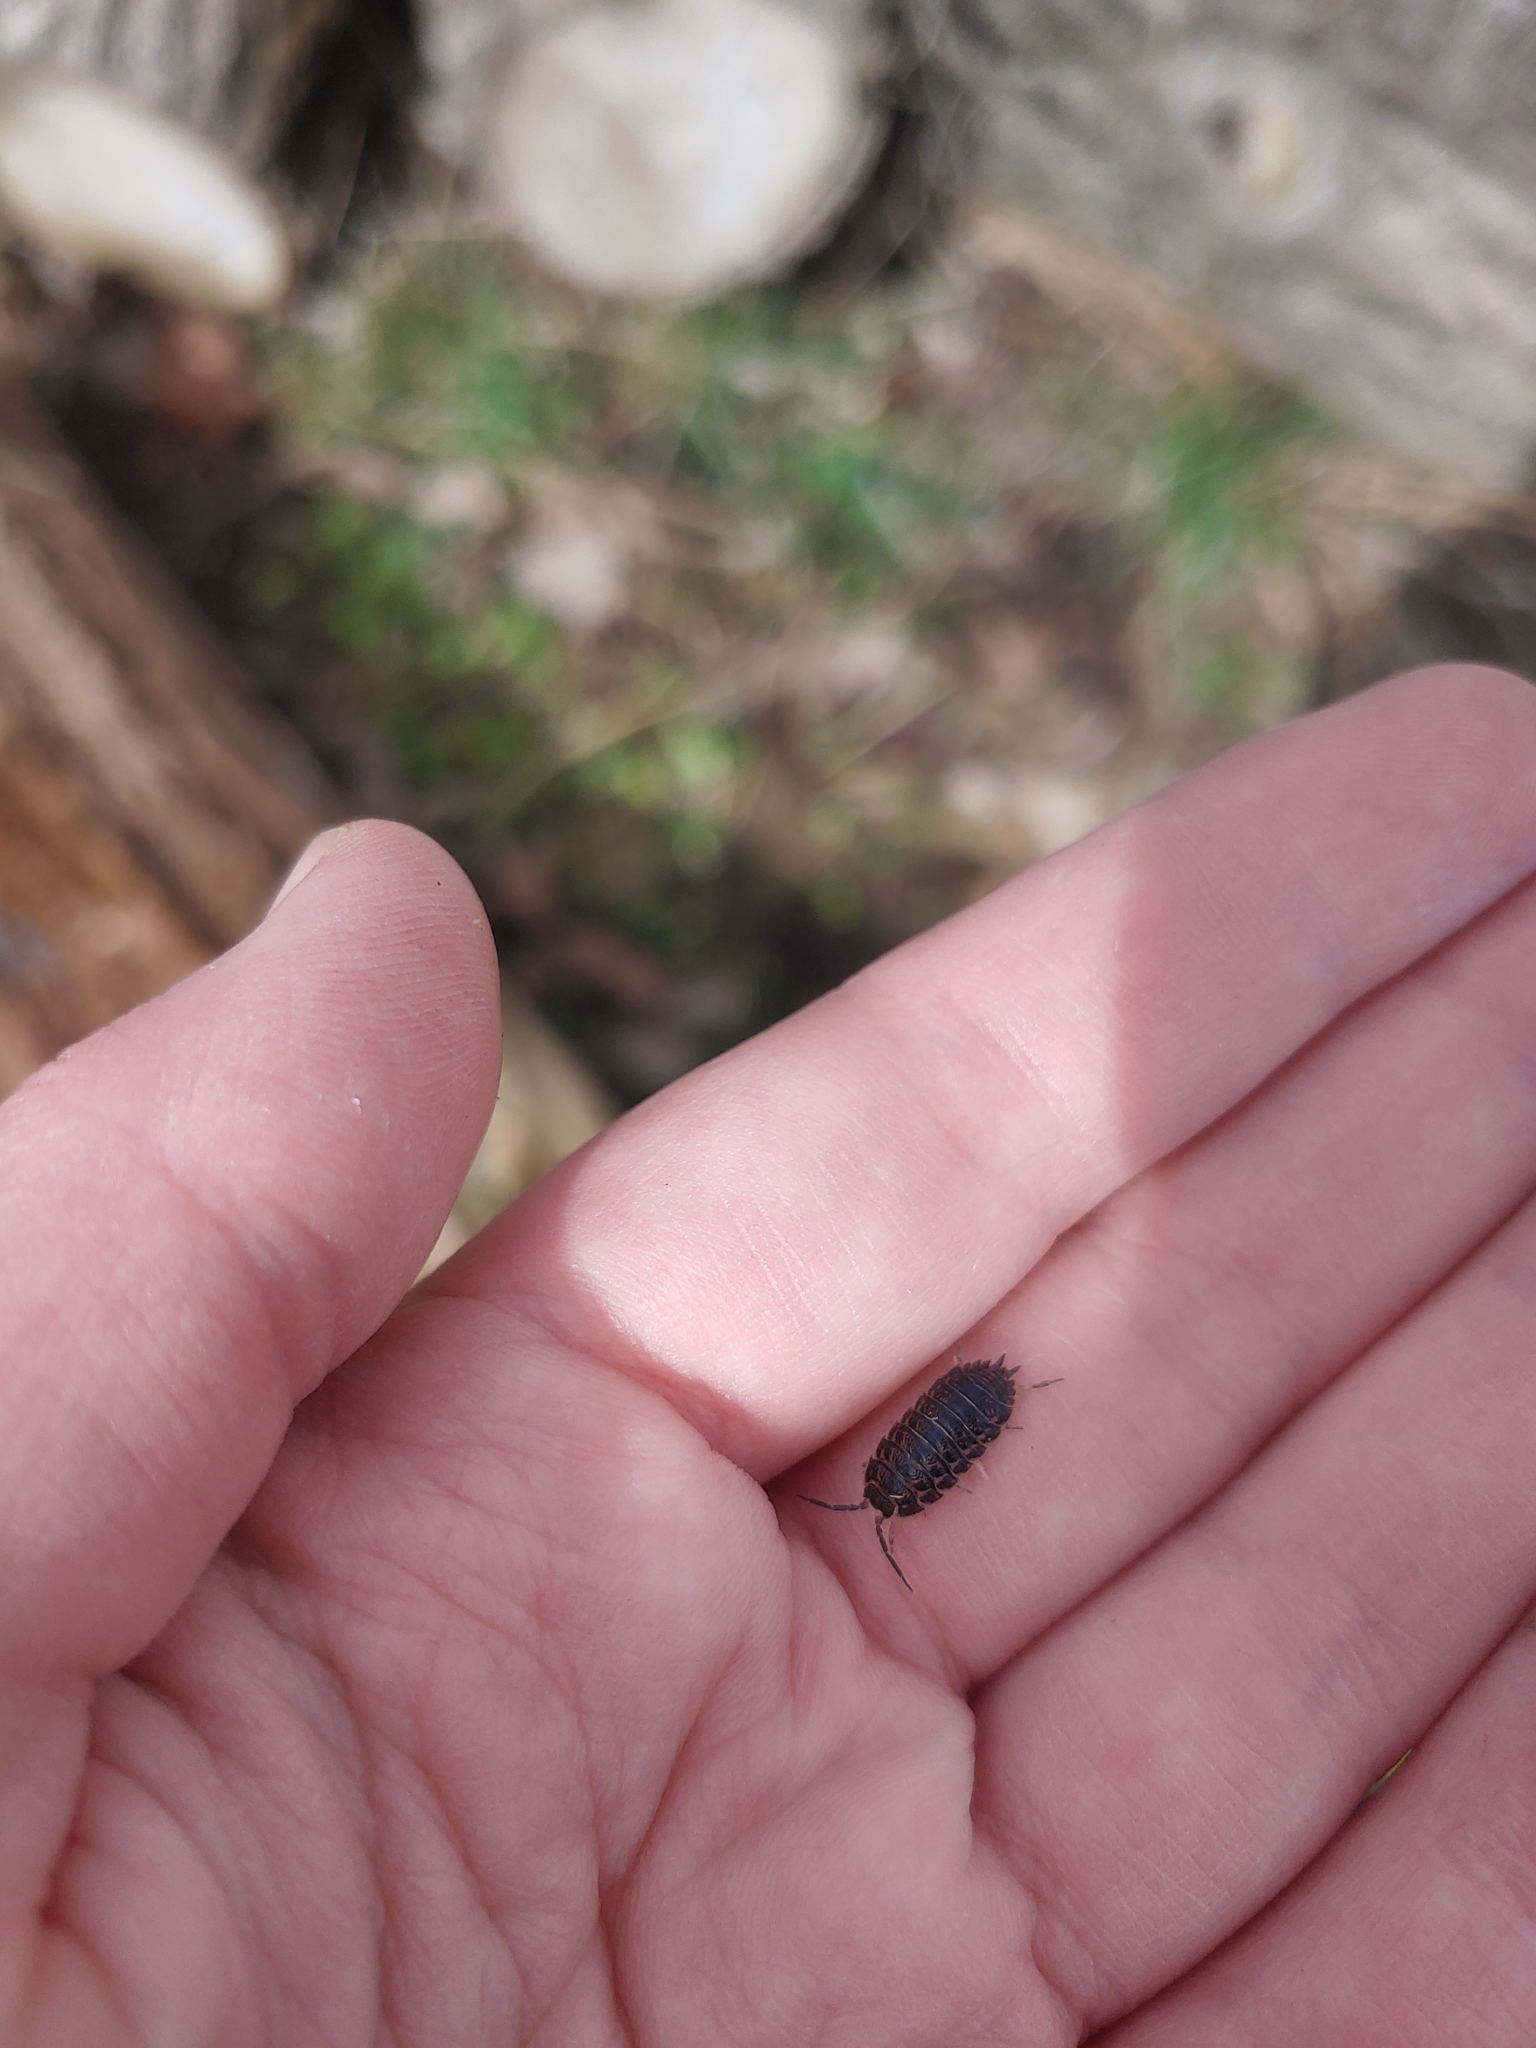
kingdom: Animalia
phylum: Arthropoda
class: Malacostraca
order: Isopoda
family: Trachelipodidae
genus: Trachelipus
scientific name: Trachelipus rathkii
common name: Isopod
